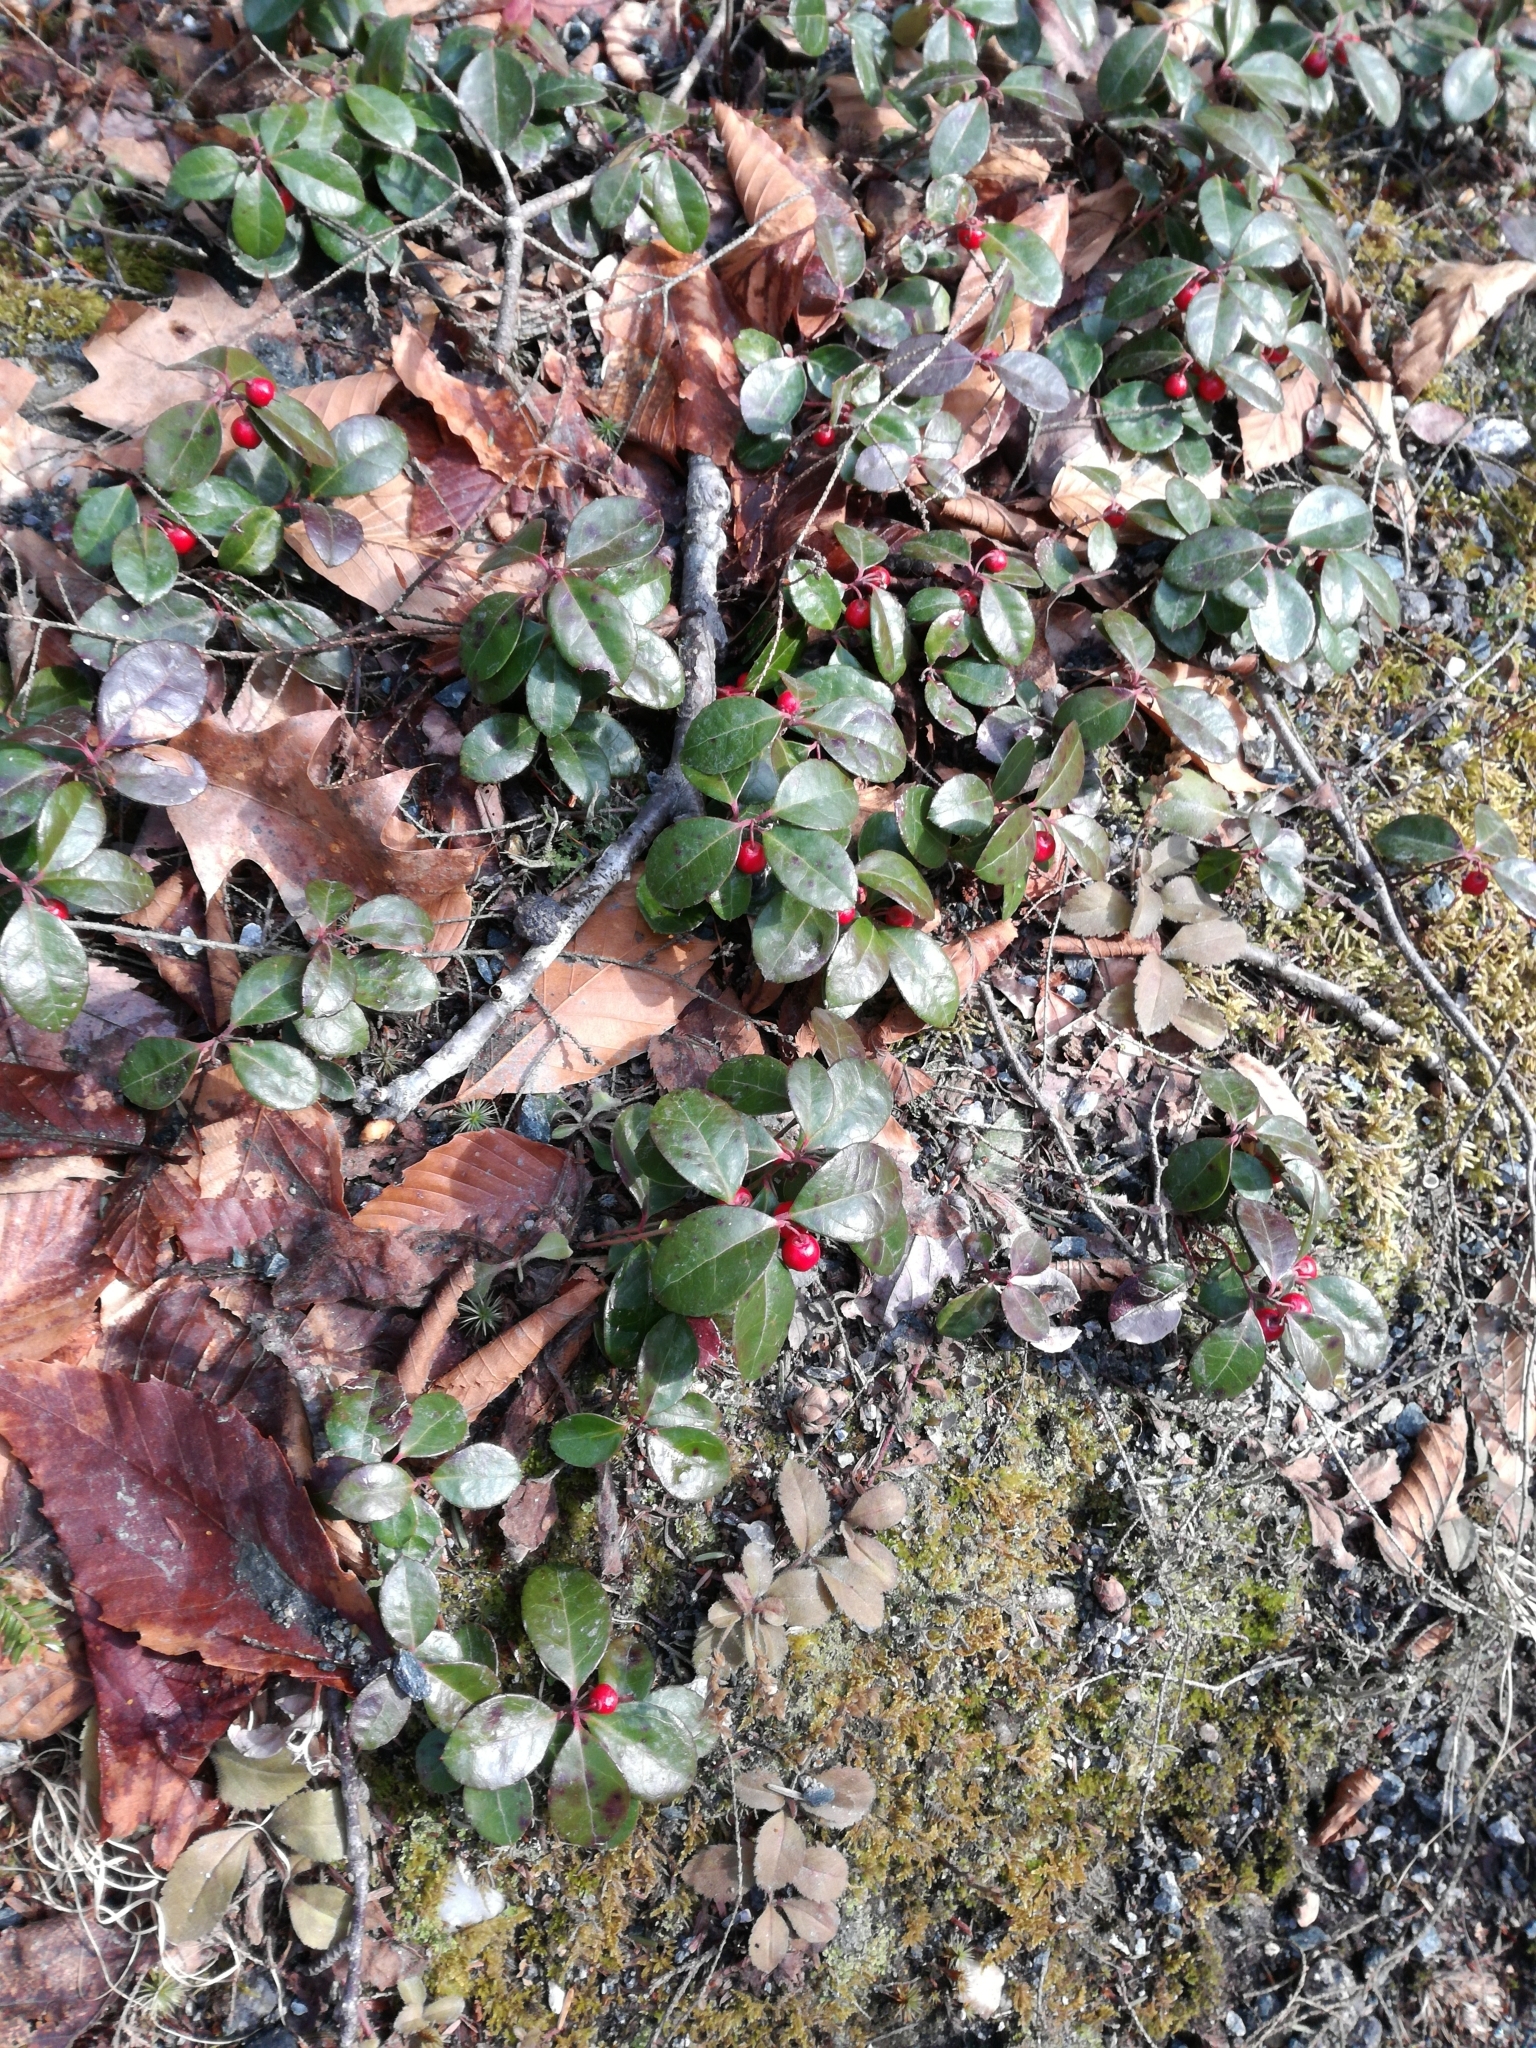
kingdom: Plantae
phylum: Tracheophyta
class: Magnoliopsida
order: Ericales
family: Ericaceae
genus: Gaultheria
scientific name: Gaultheria procumbens
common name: Checkerberry
